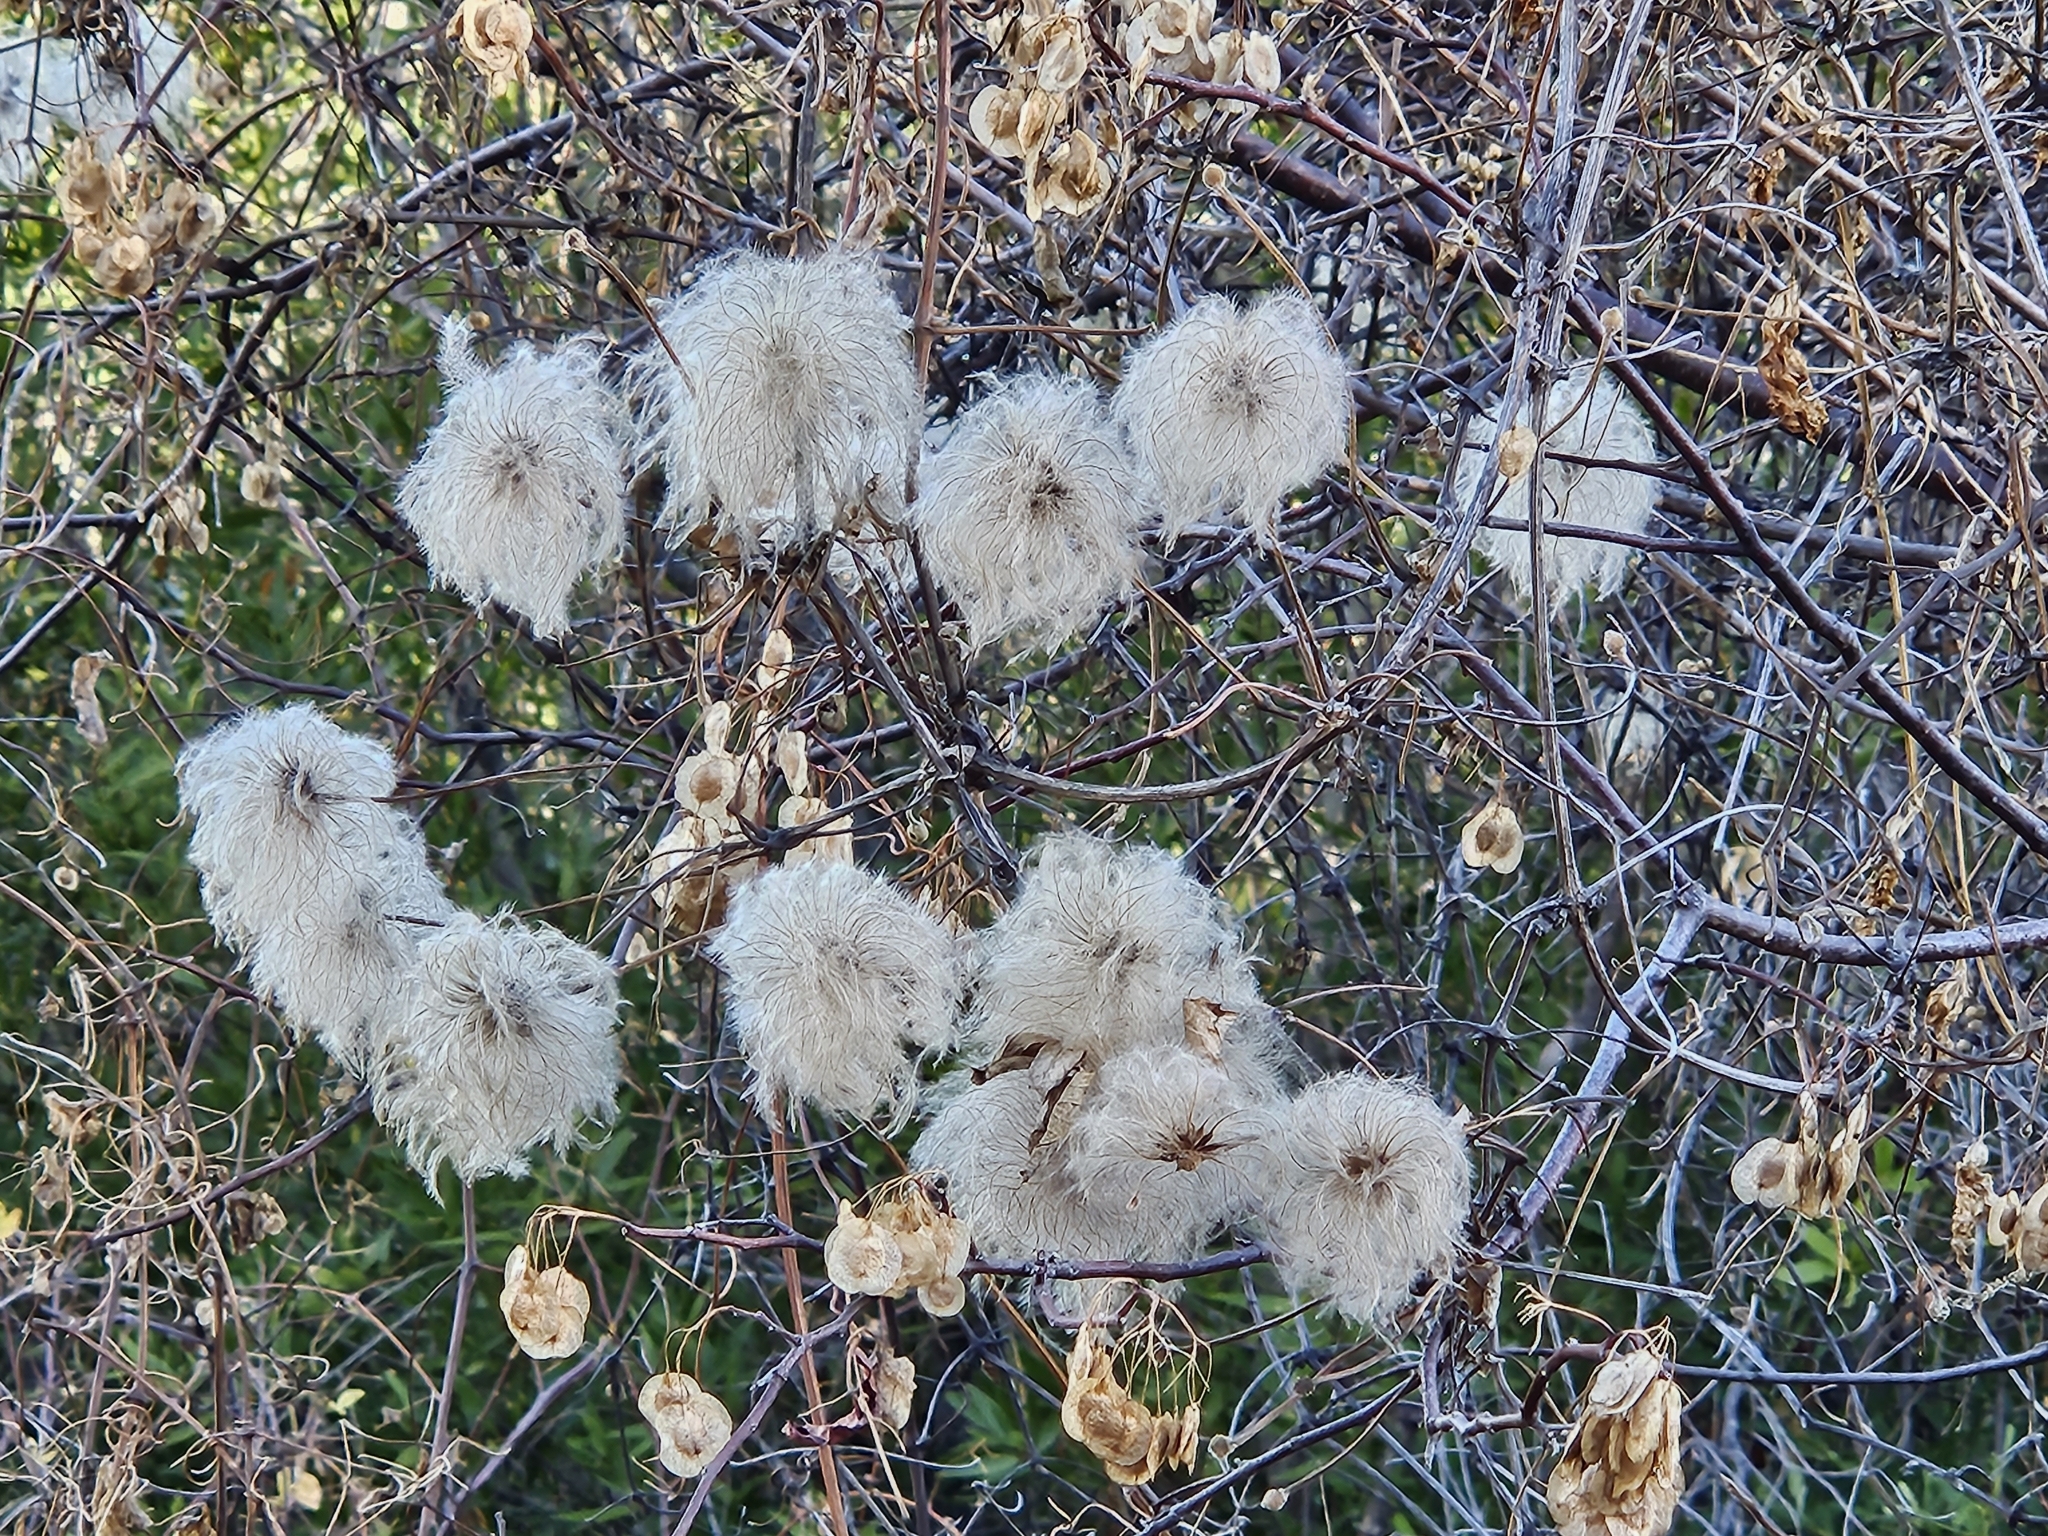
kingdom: Plantae
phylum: Tracheophyta
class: Magnoliopsida
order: Ranunculales
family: Ranunculaceae
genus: Clematis
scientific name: Clematis lasiantha
